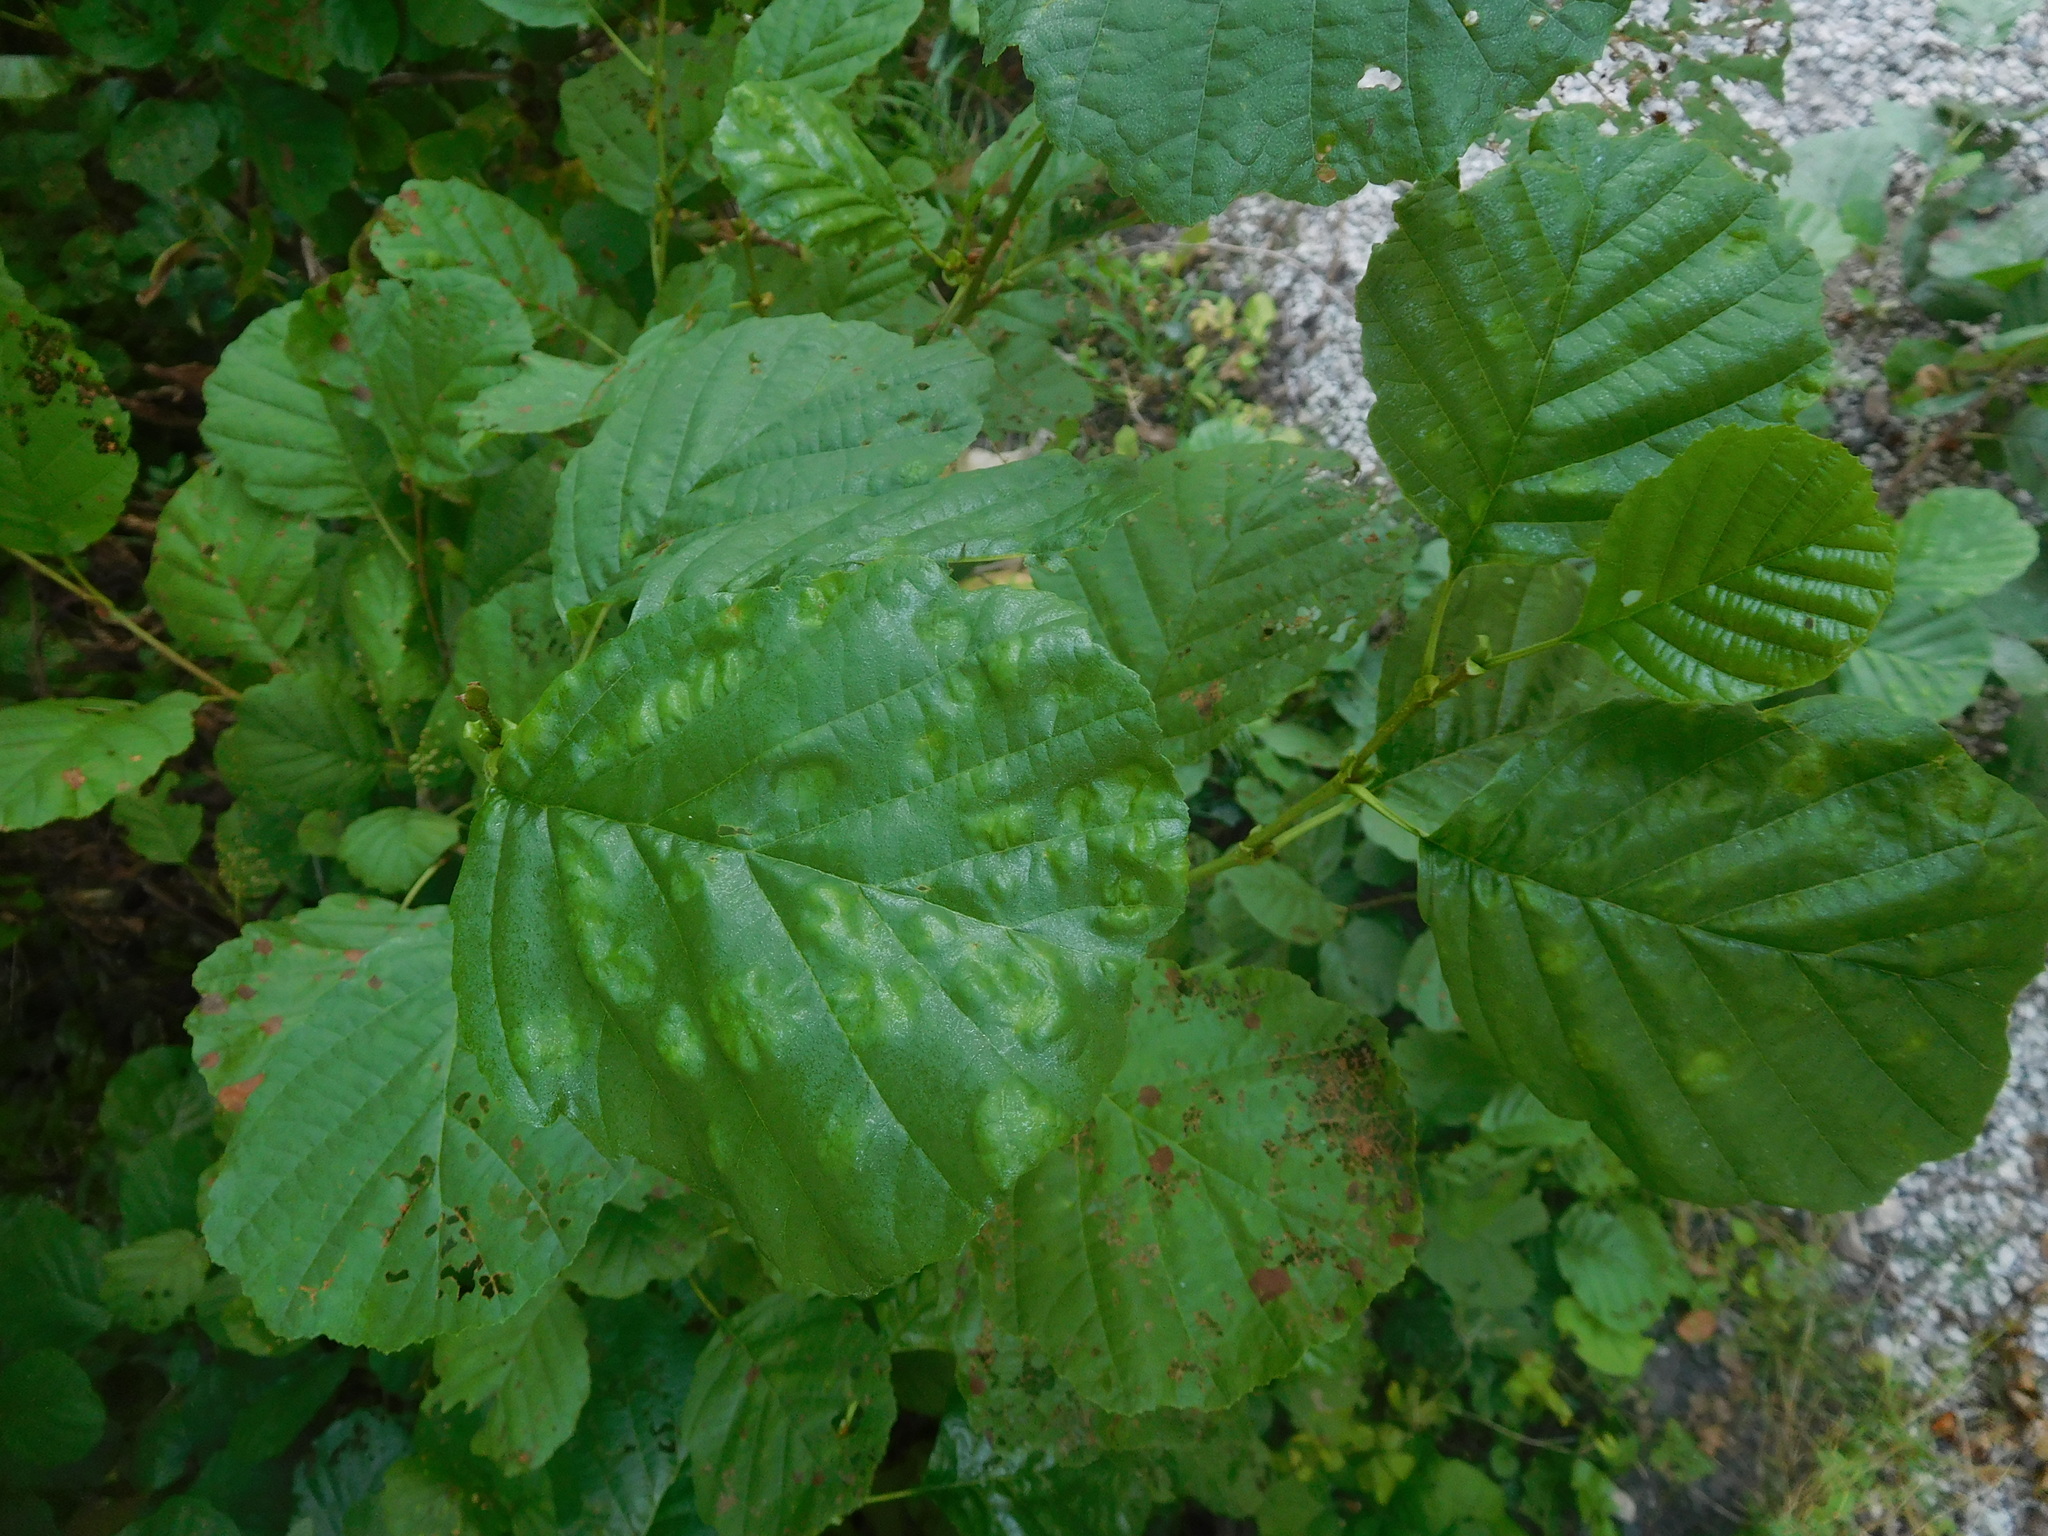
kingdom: Plantae
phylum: Tracheophyta
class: Magnoliopsida
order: Fagales
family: Betulaceae
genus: Alnus
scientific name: Alnus glutinosa
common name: Black alder
